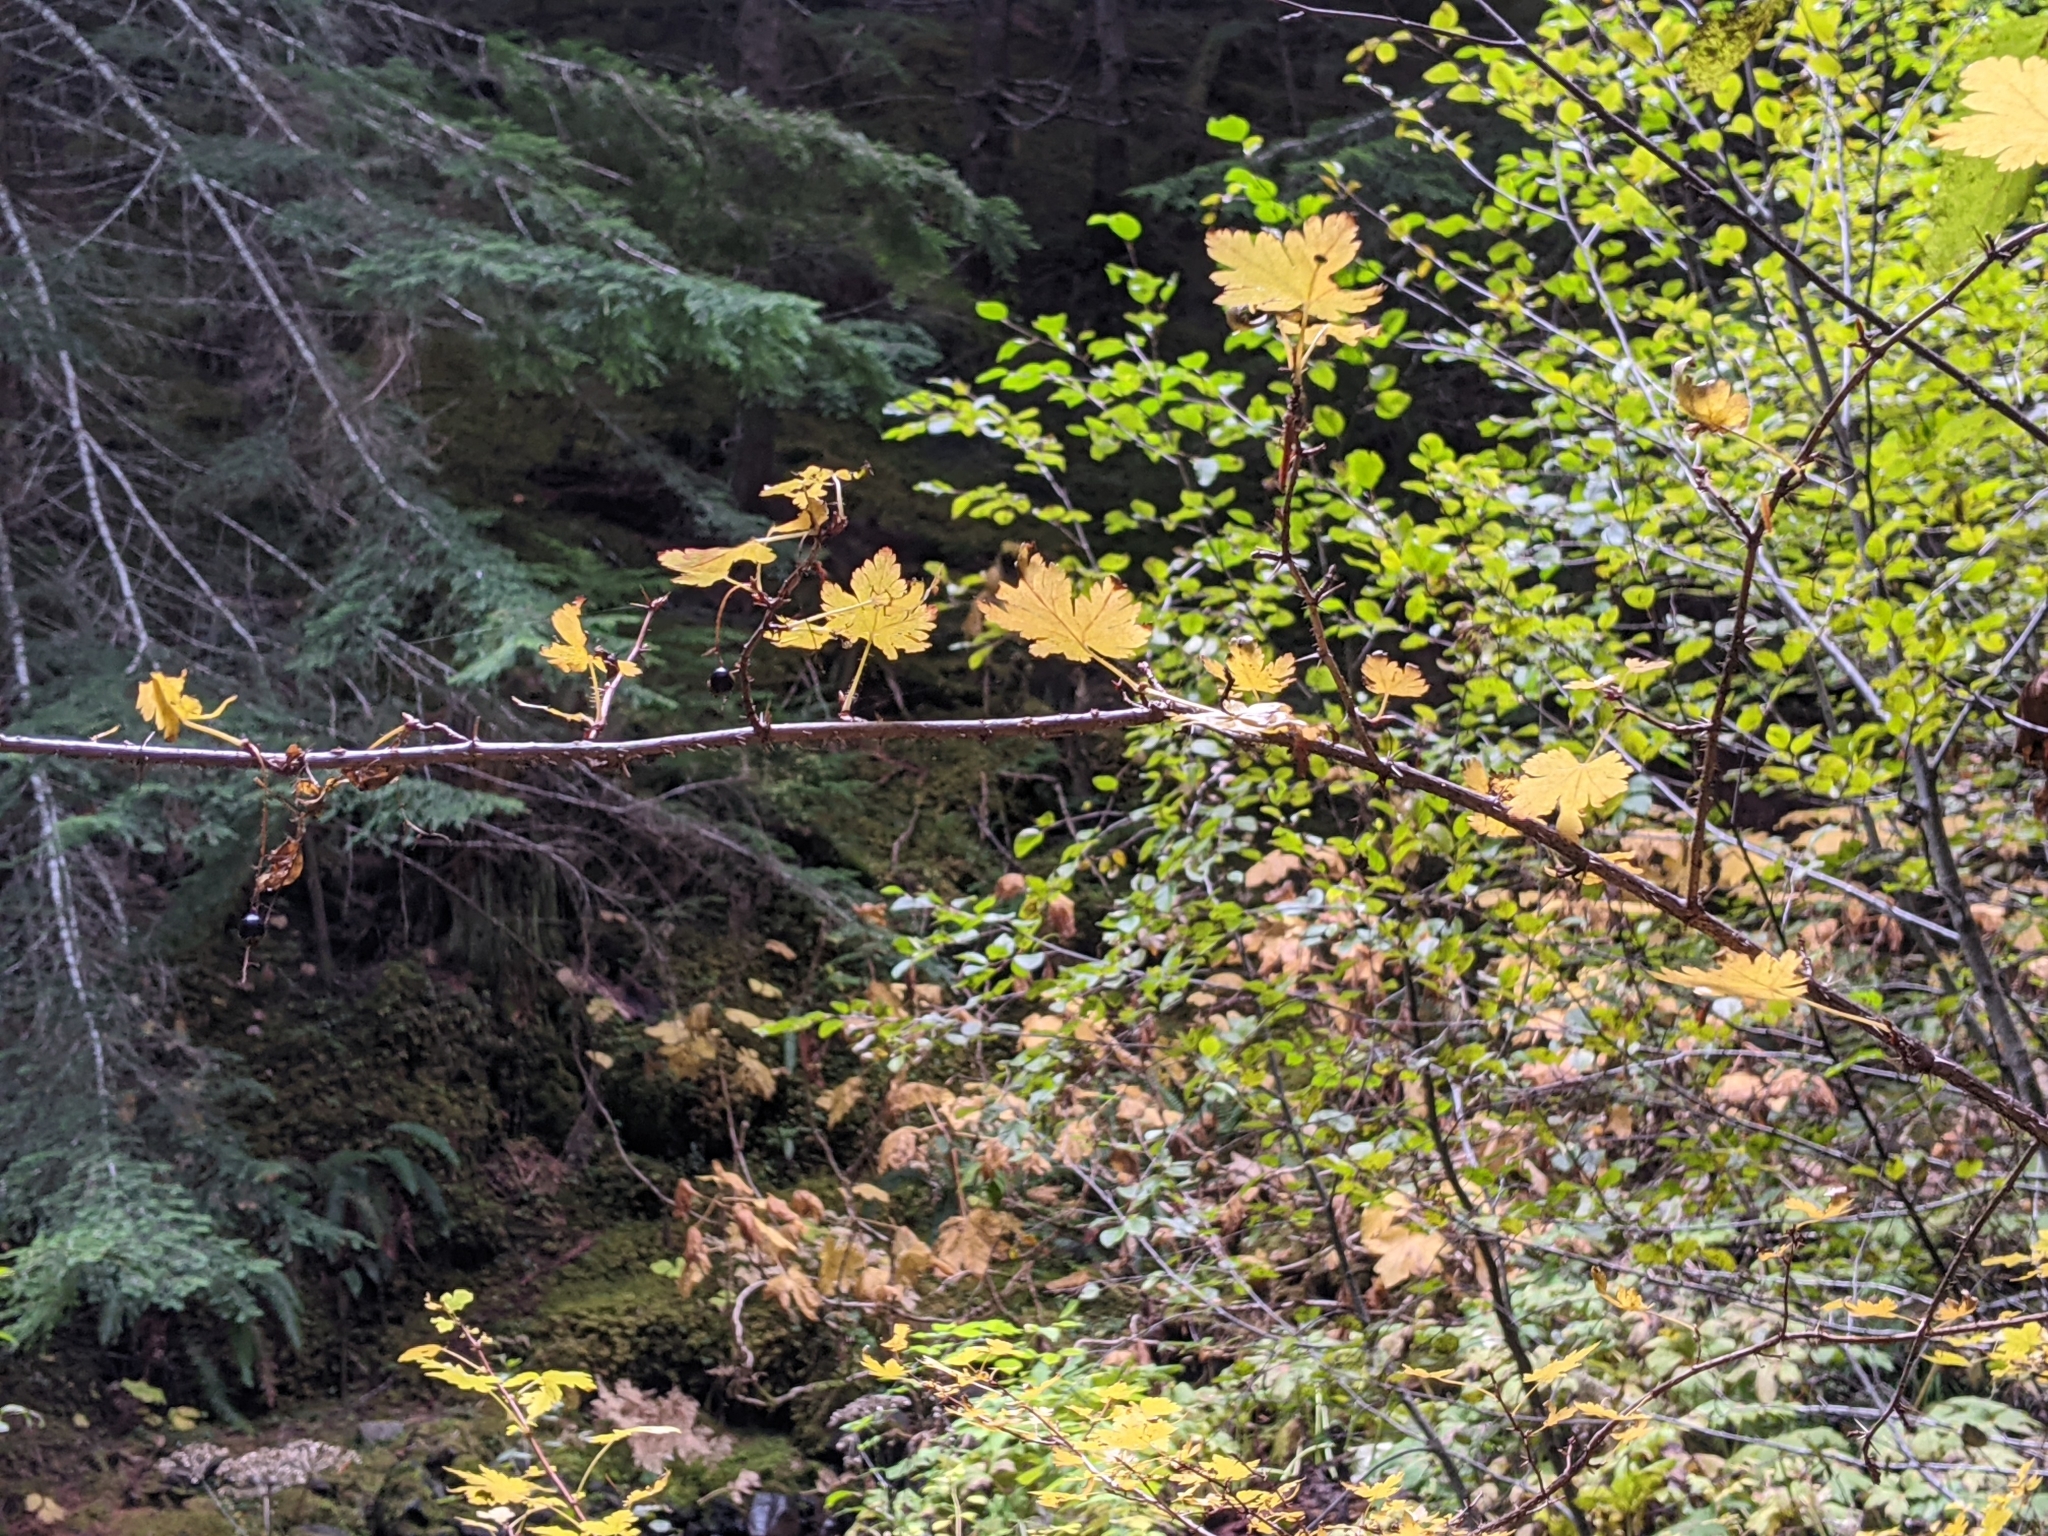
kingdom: Plantae
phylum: Tracheophyta
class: Magnoliopsida
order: Saxifragales
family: Grossulariaceae
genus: Ribes
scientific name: Ribes lacustre
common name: Black gooseberry
